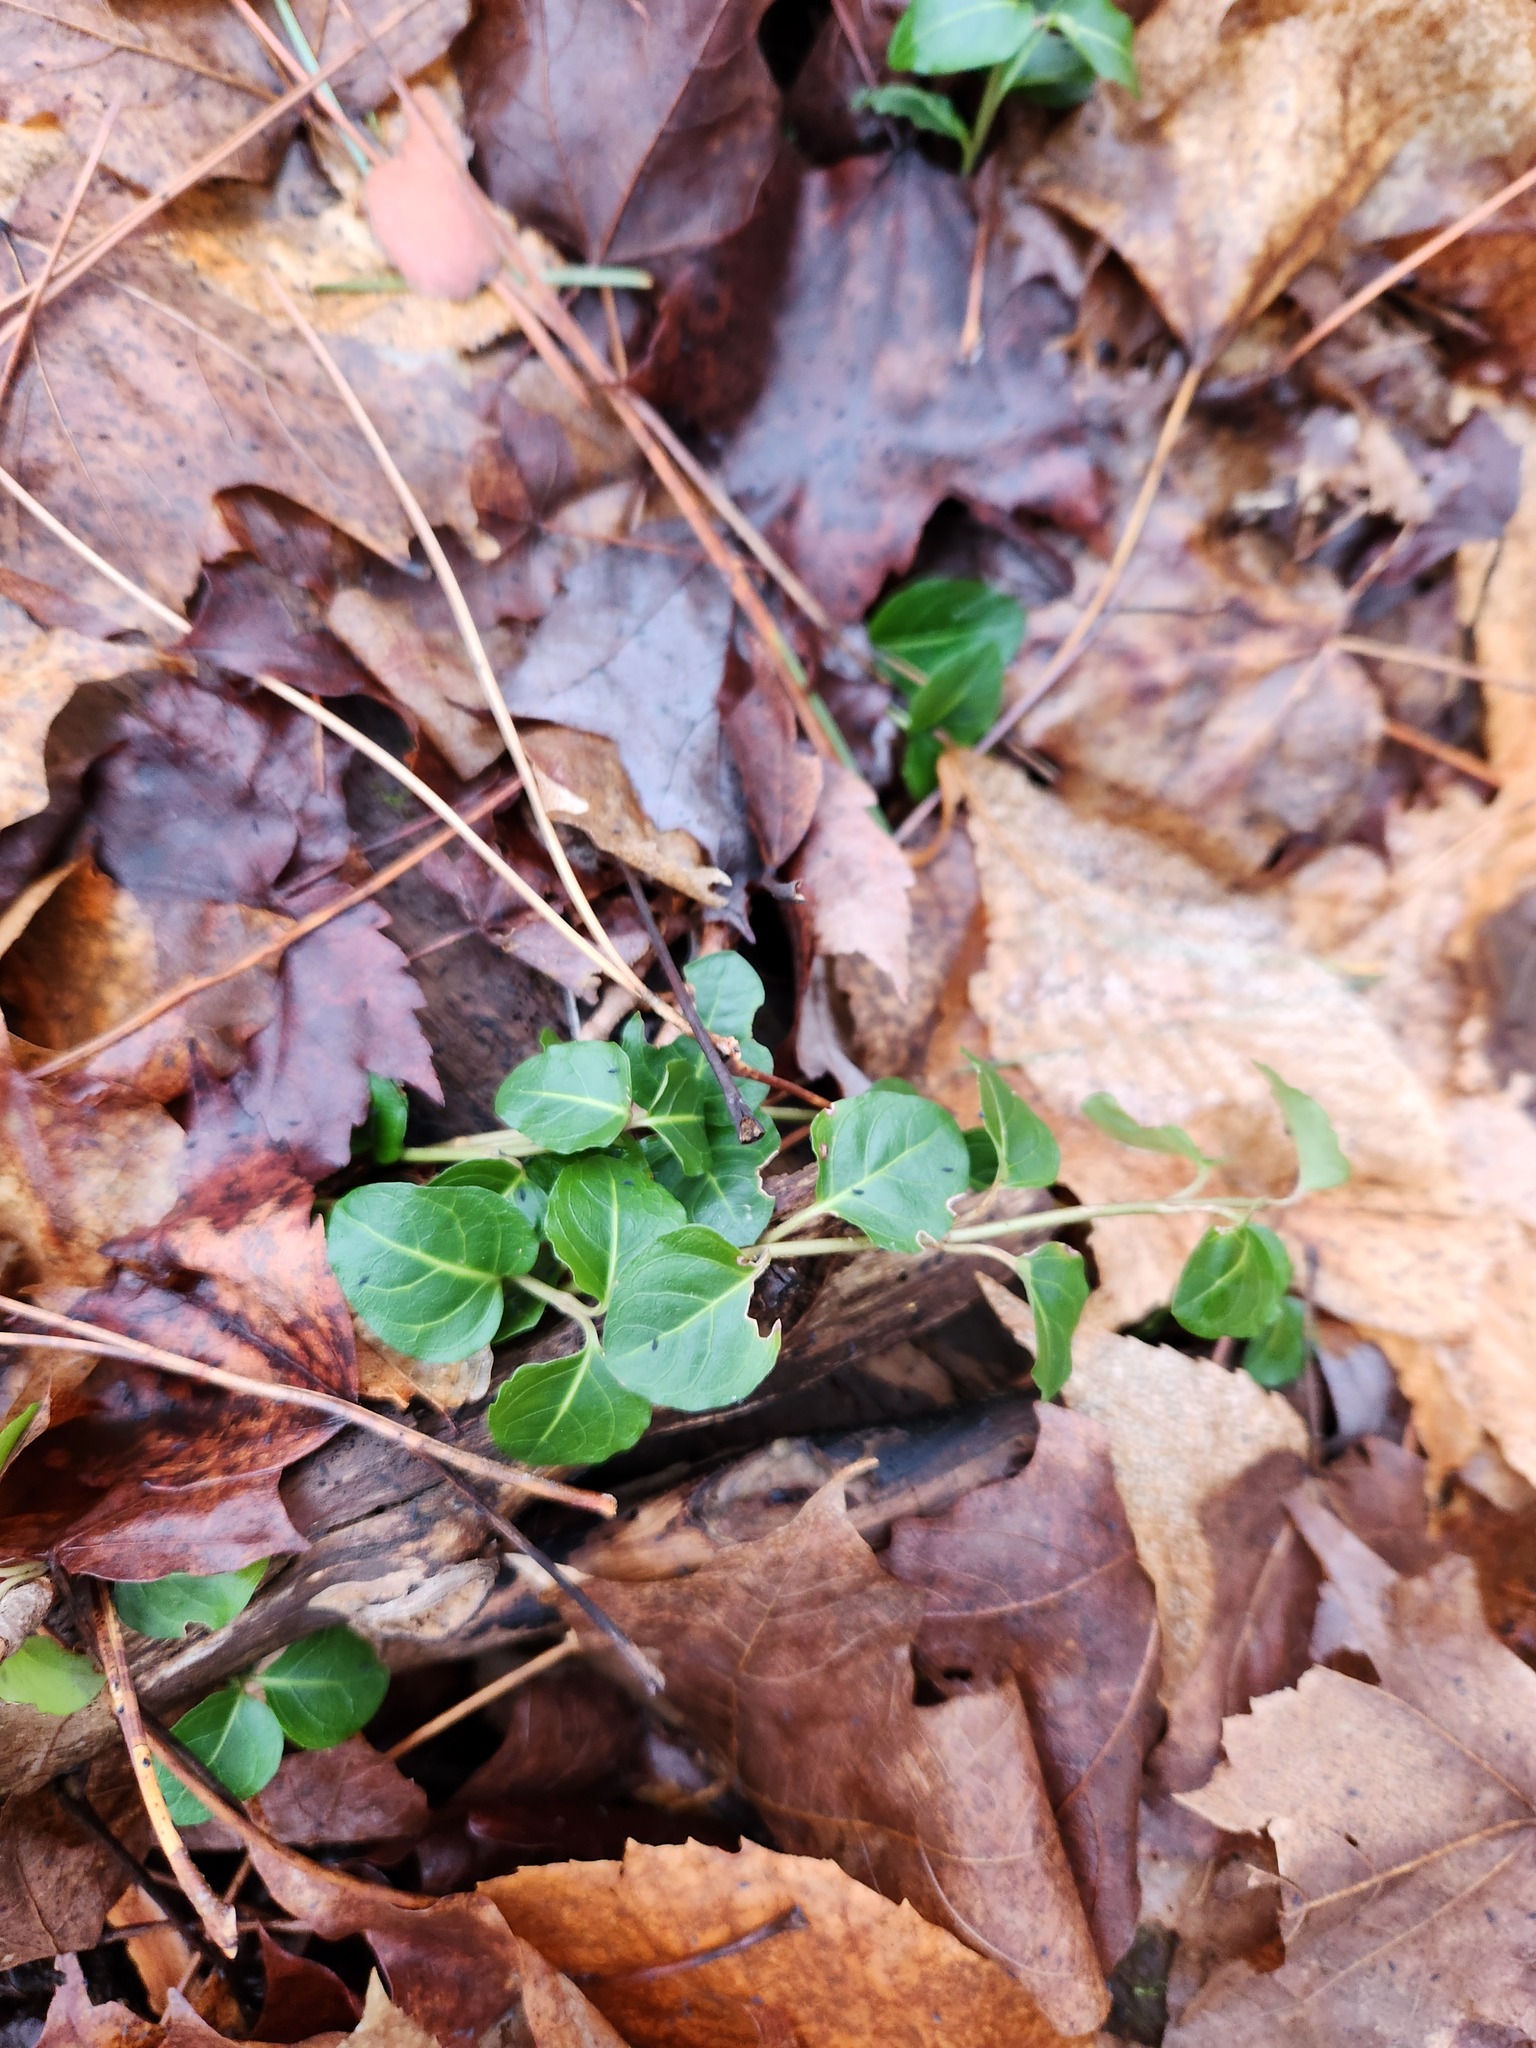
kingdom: Plantae
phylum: Tracheophyta
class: Magnoliopsida
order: Gentianales
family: Rubiaceae
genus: Mitchella
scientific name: Mitchella repens
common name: Partridge-berry
